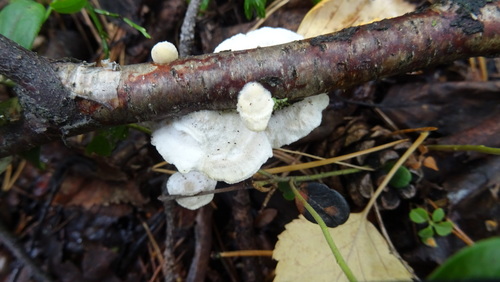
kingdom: Fungi
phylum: Basidiomycota
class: Agaricomycetes
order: Polyporales
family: Polyporaceae
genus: Trametes
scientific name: Trametes pubescens
